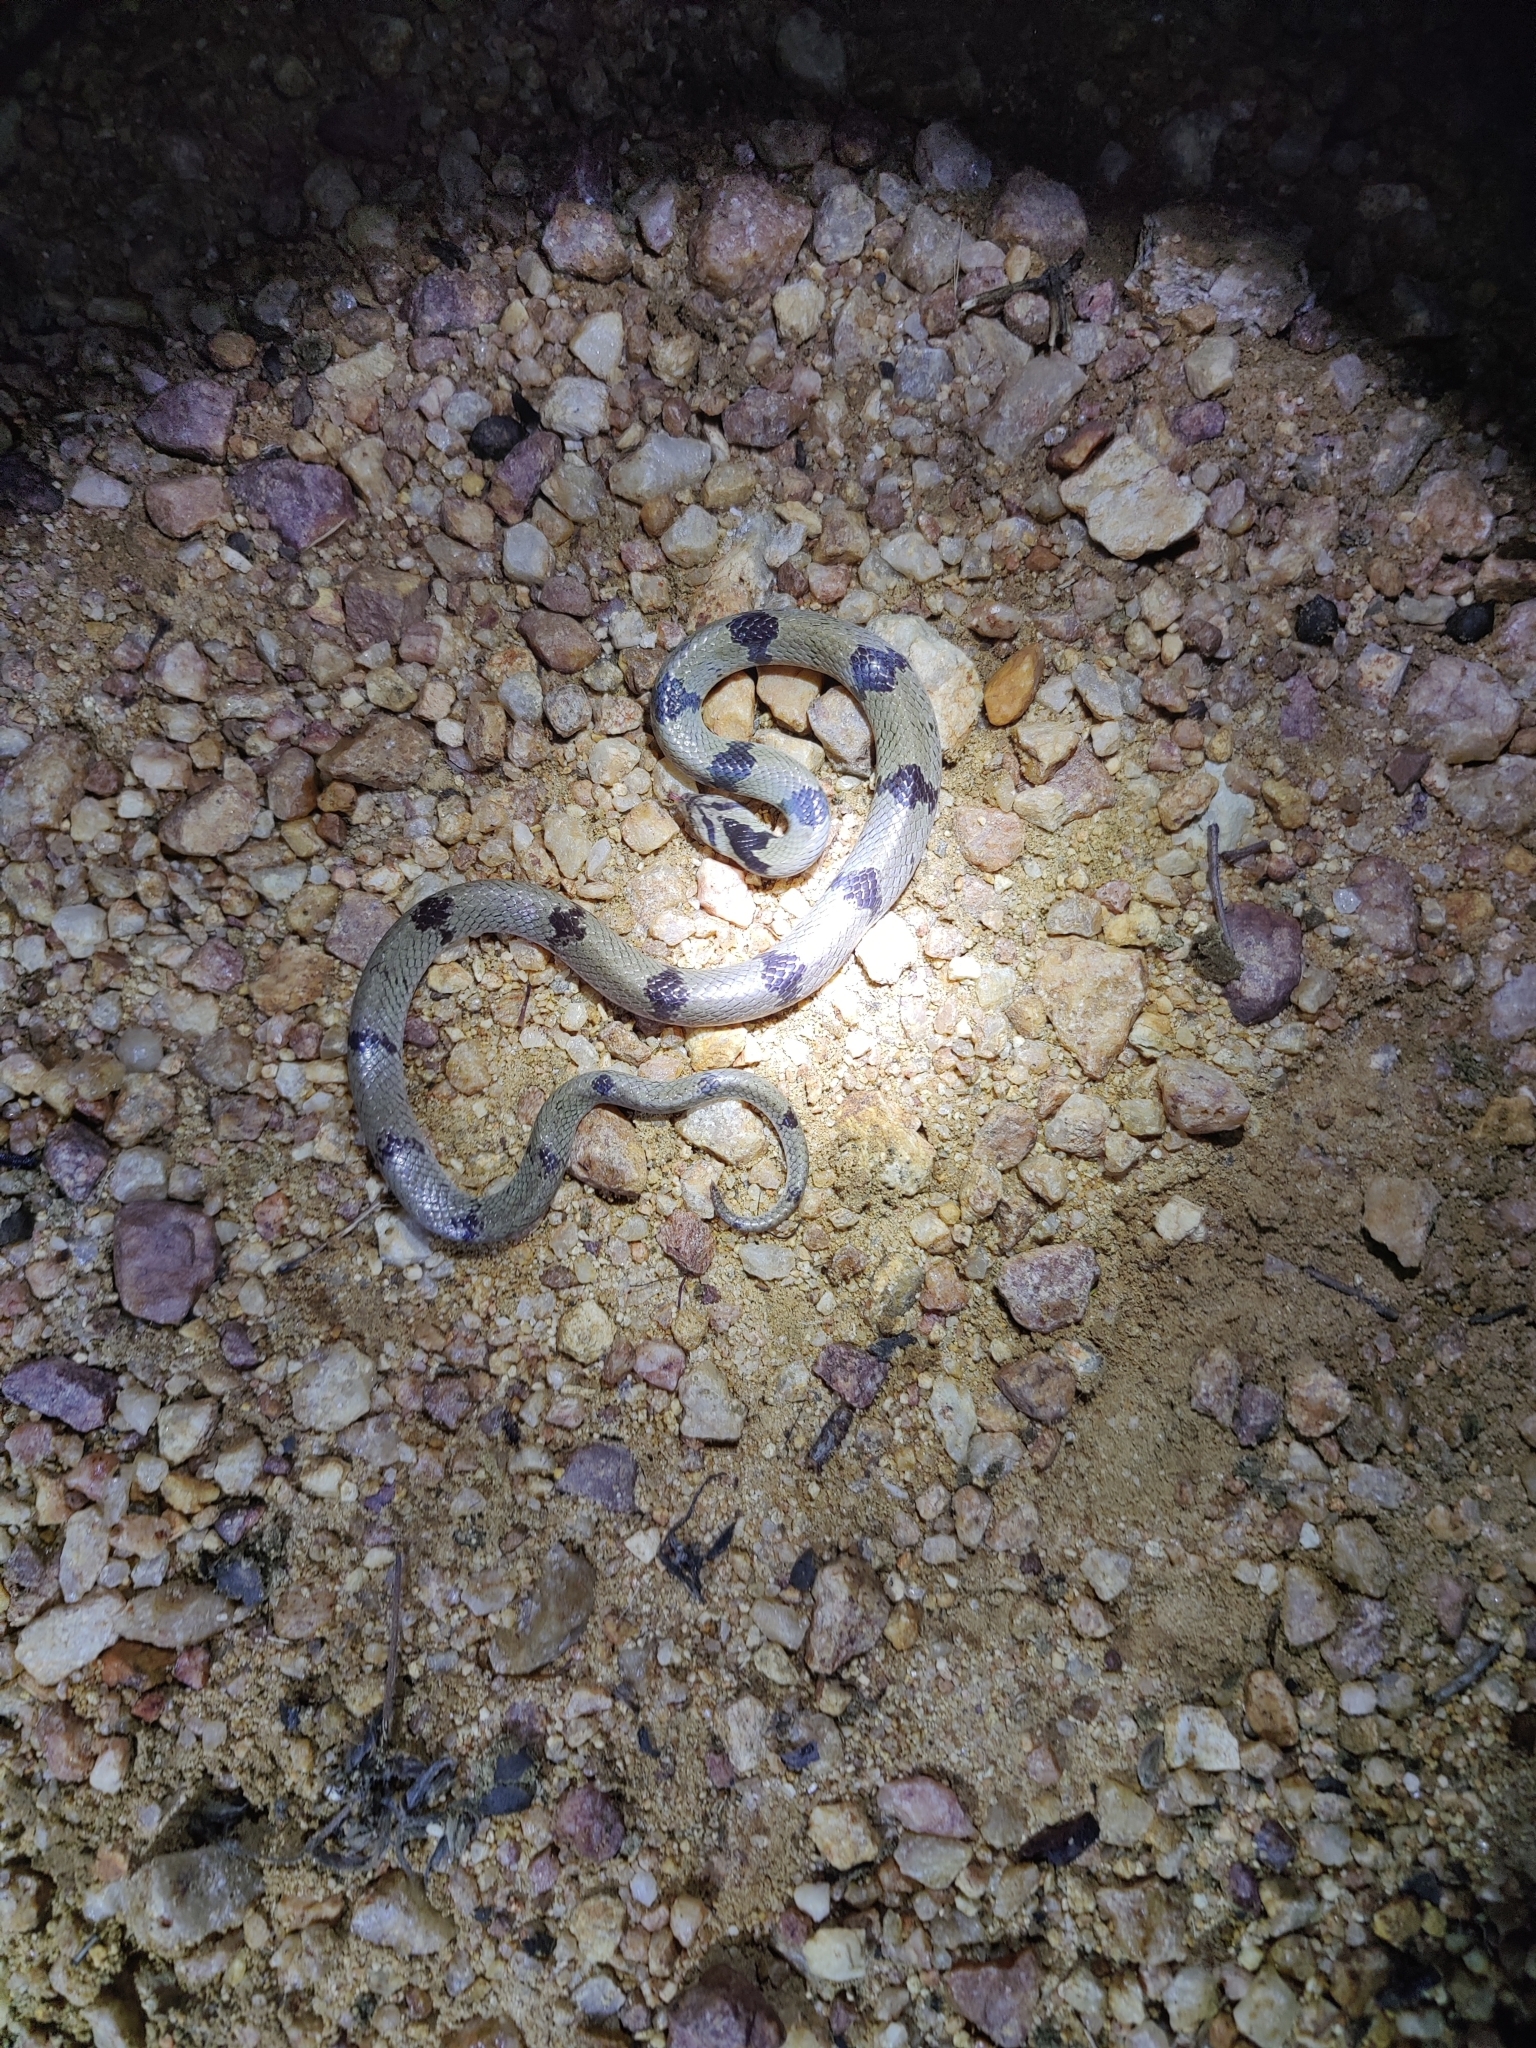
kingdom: Animalia
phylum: Chordata
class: Squamata
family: Colubridae
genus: Oligodon
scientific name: Oligodon arnensis
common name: Banded kukri
